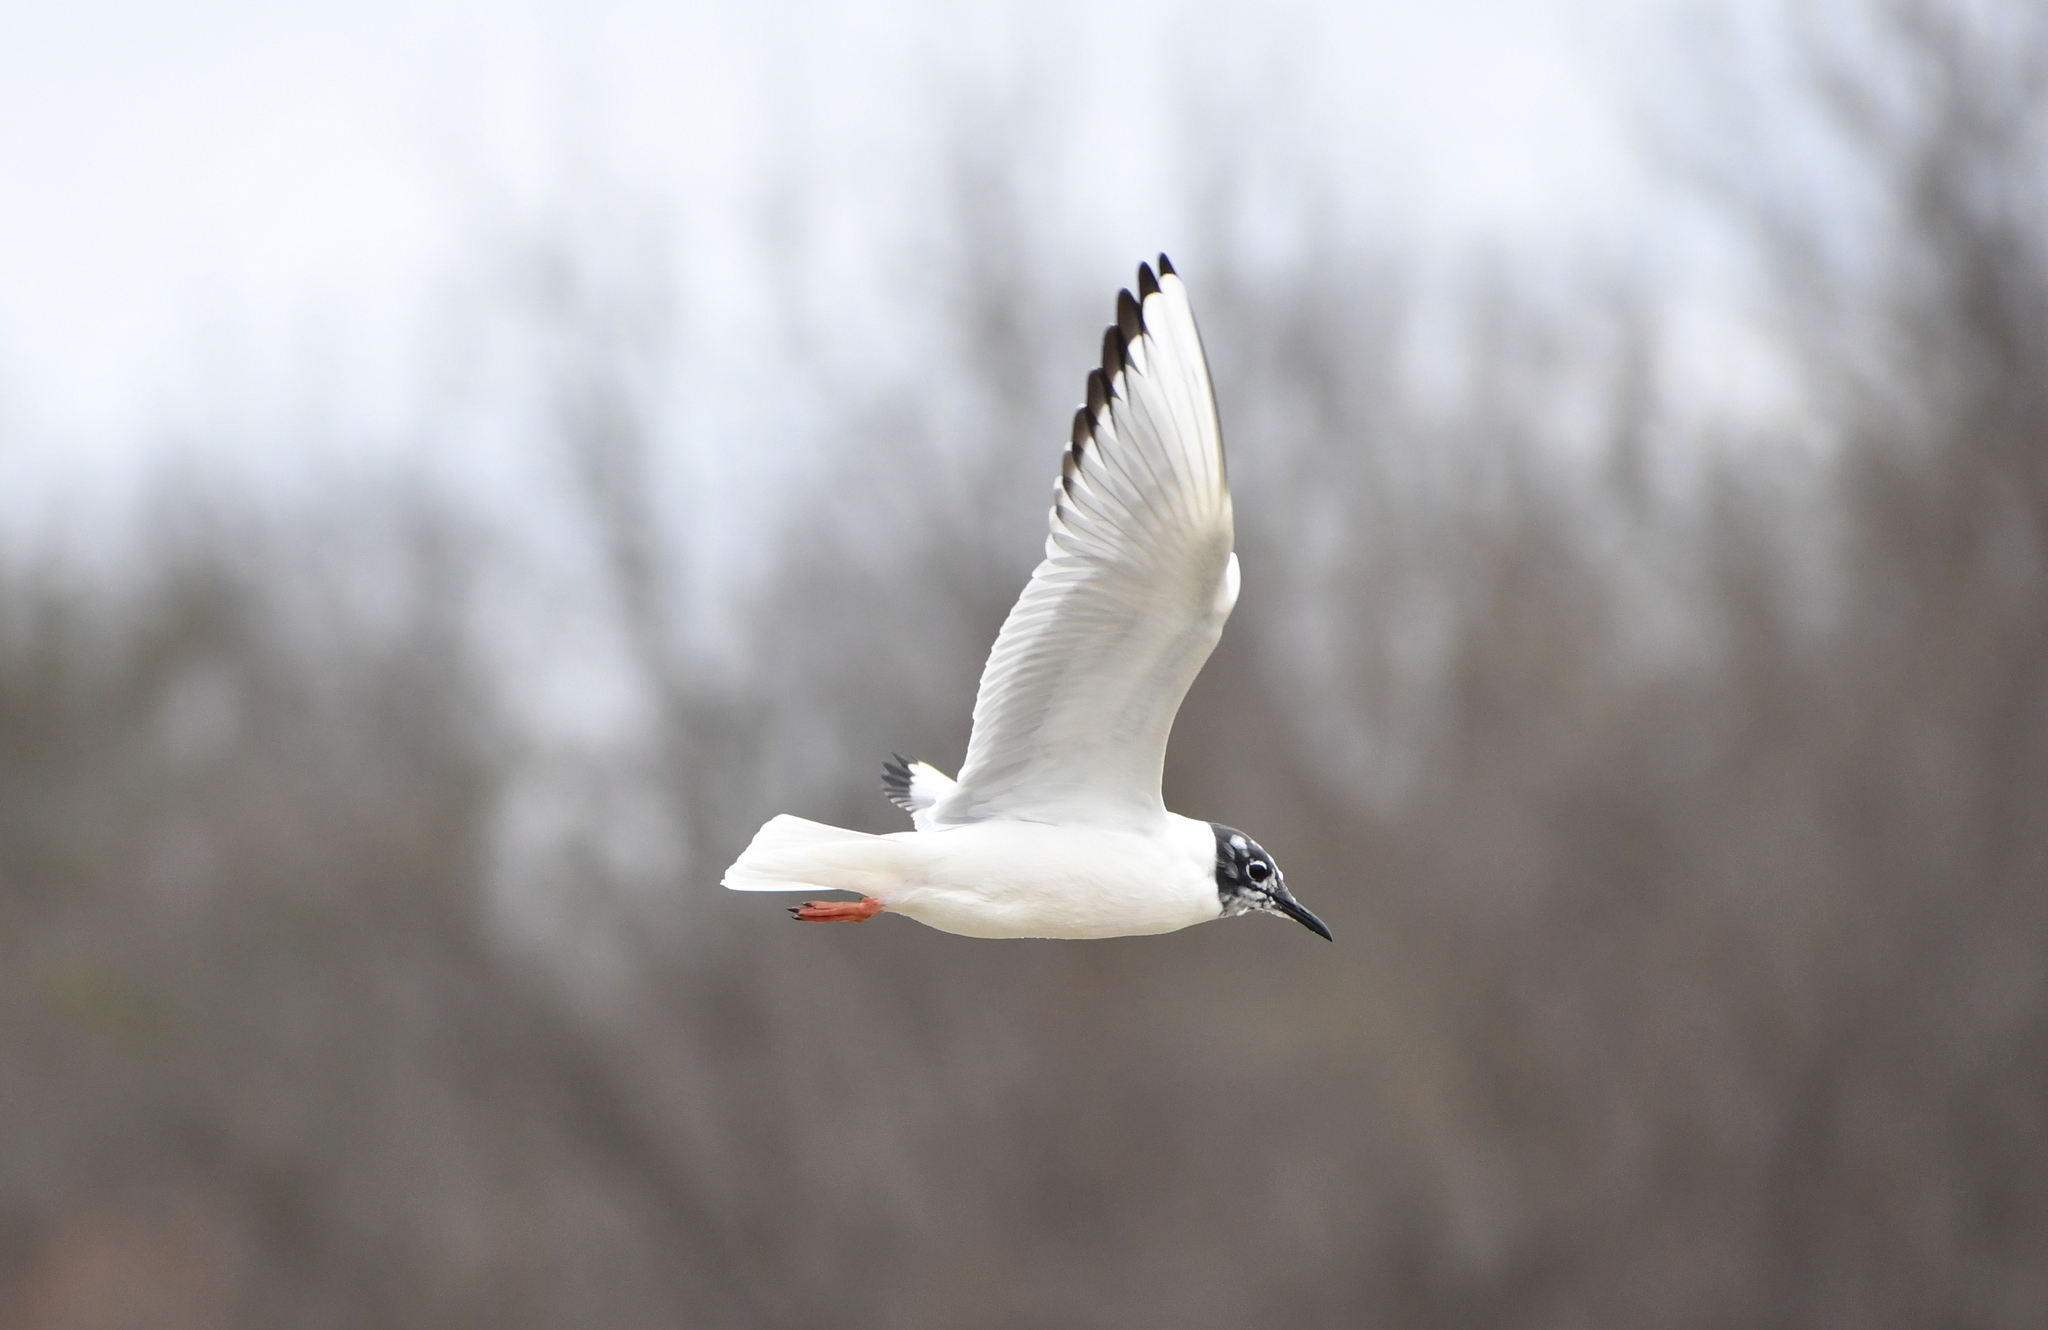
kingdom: Animalia
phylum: Chordata
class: Aves
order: Charadriiformes
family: Laridae
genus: Chroicocephalus
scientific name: Chroicocephalus philadelphia
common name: Bonaparte's gull
